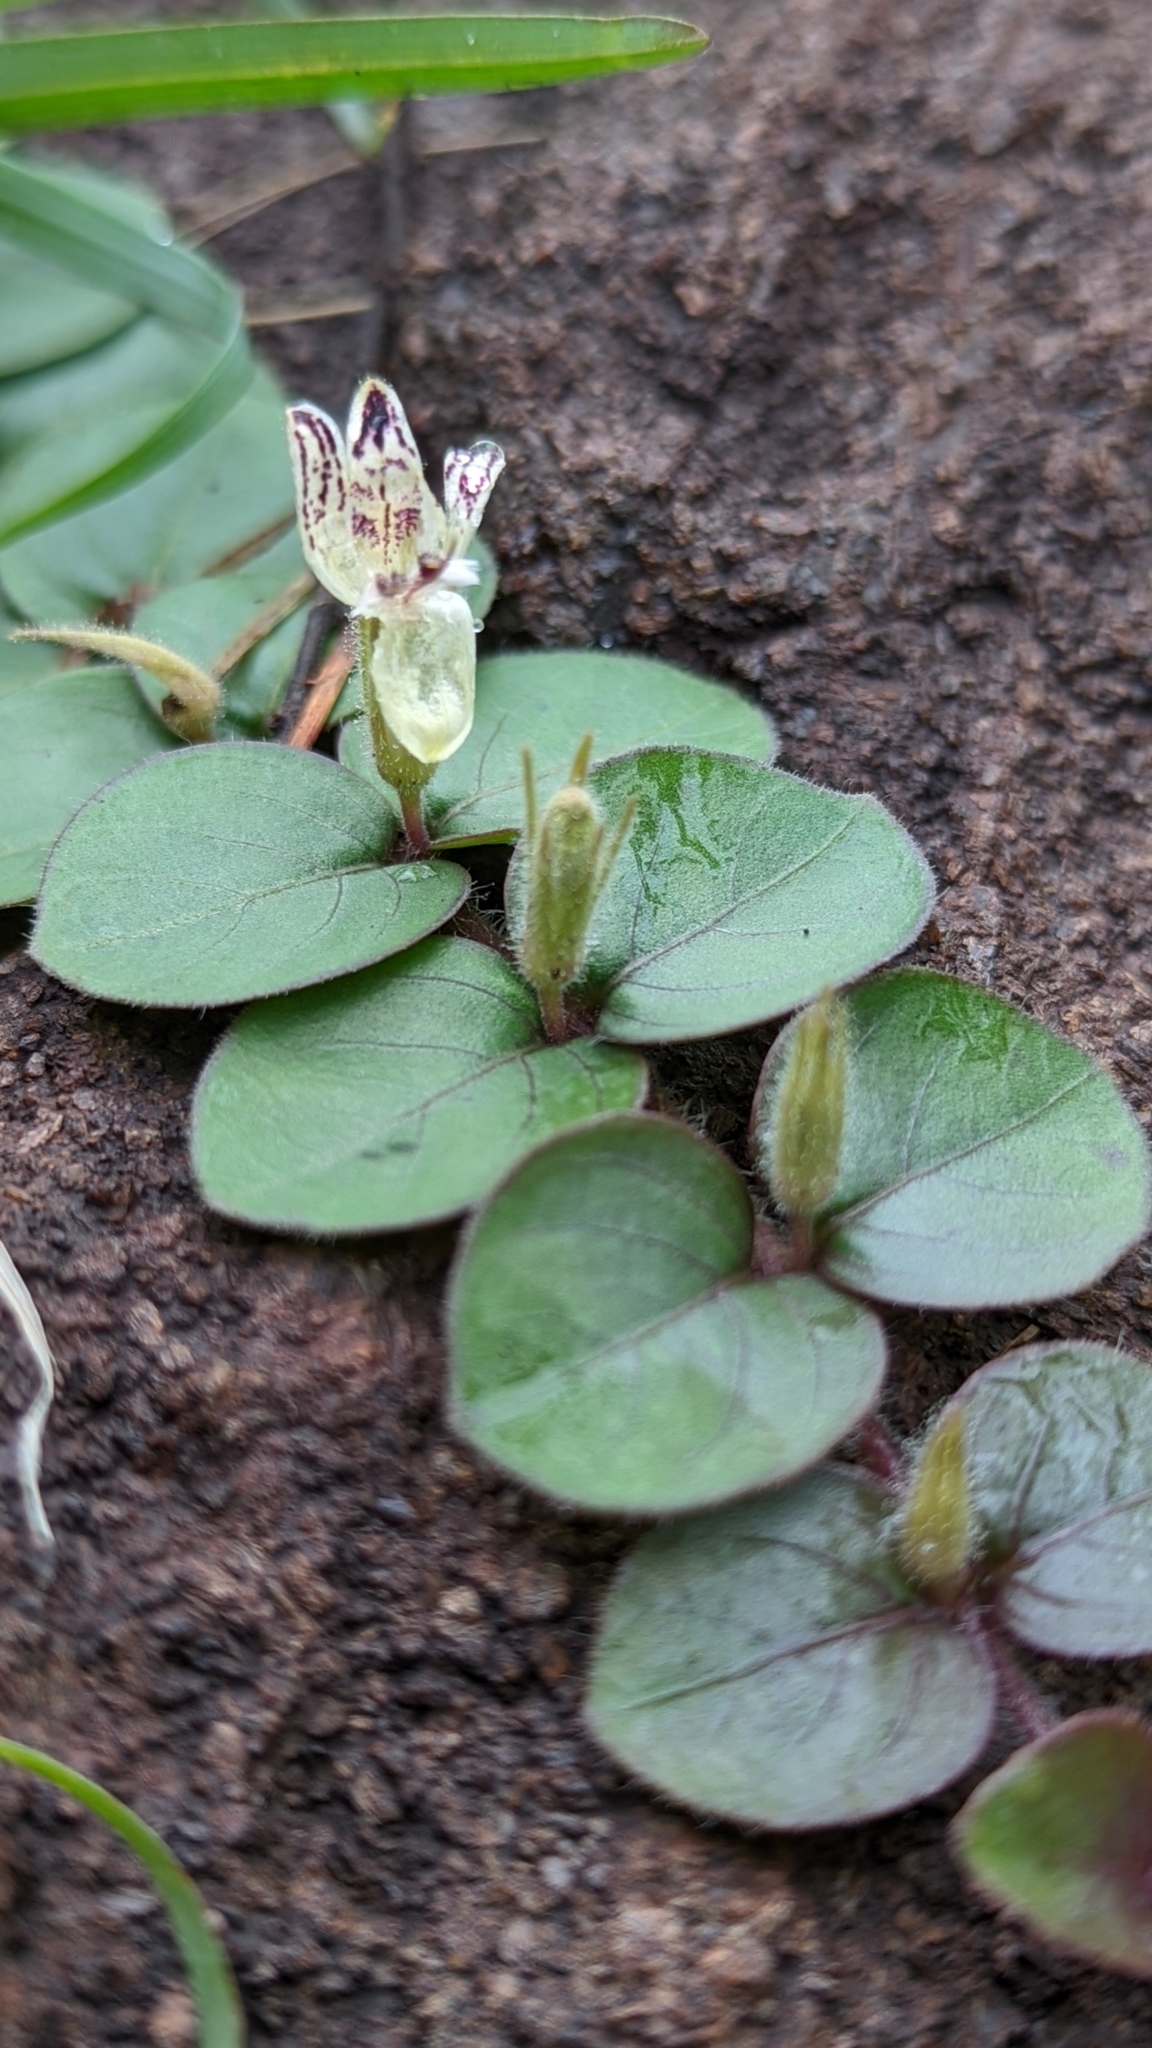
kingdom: Plantae
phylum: Tracheophyta
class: Magnoliopsida
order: Lamiales
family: Acanthaceae
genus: Andrographis
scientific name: Andrographis serpyllifolia
